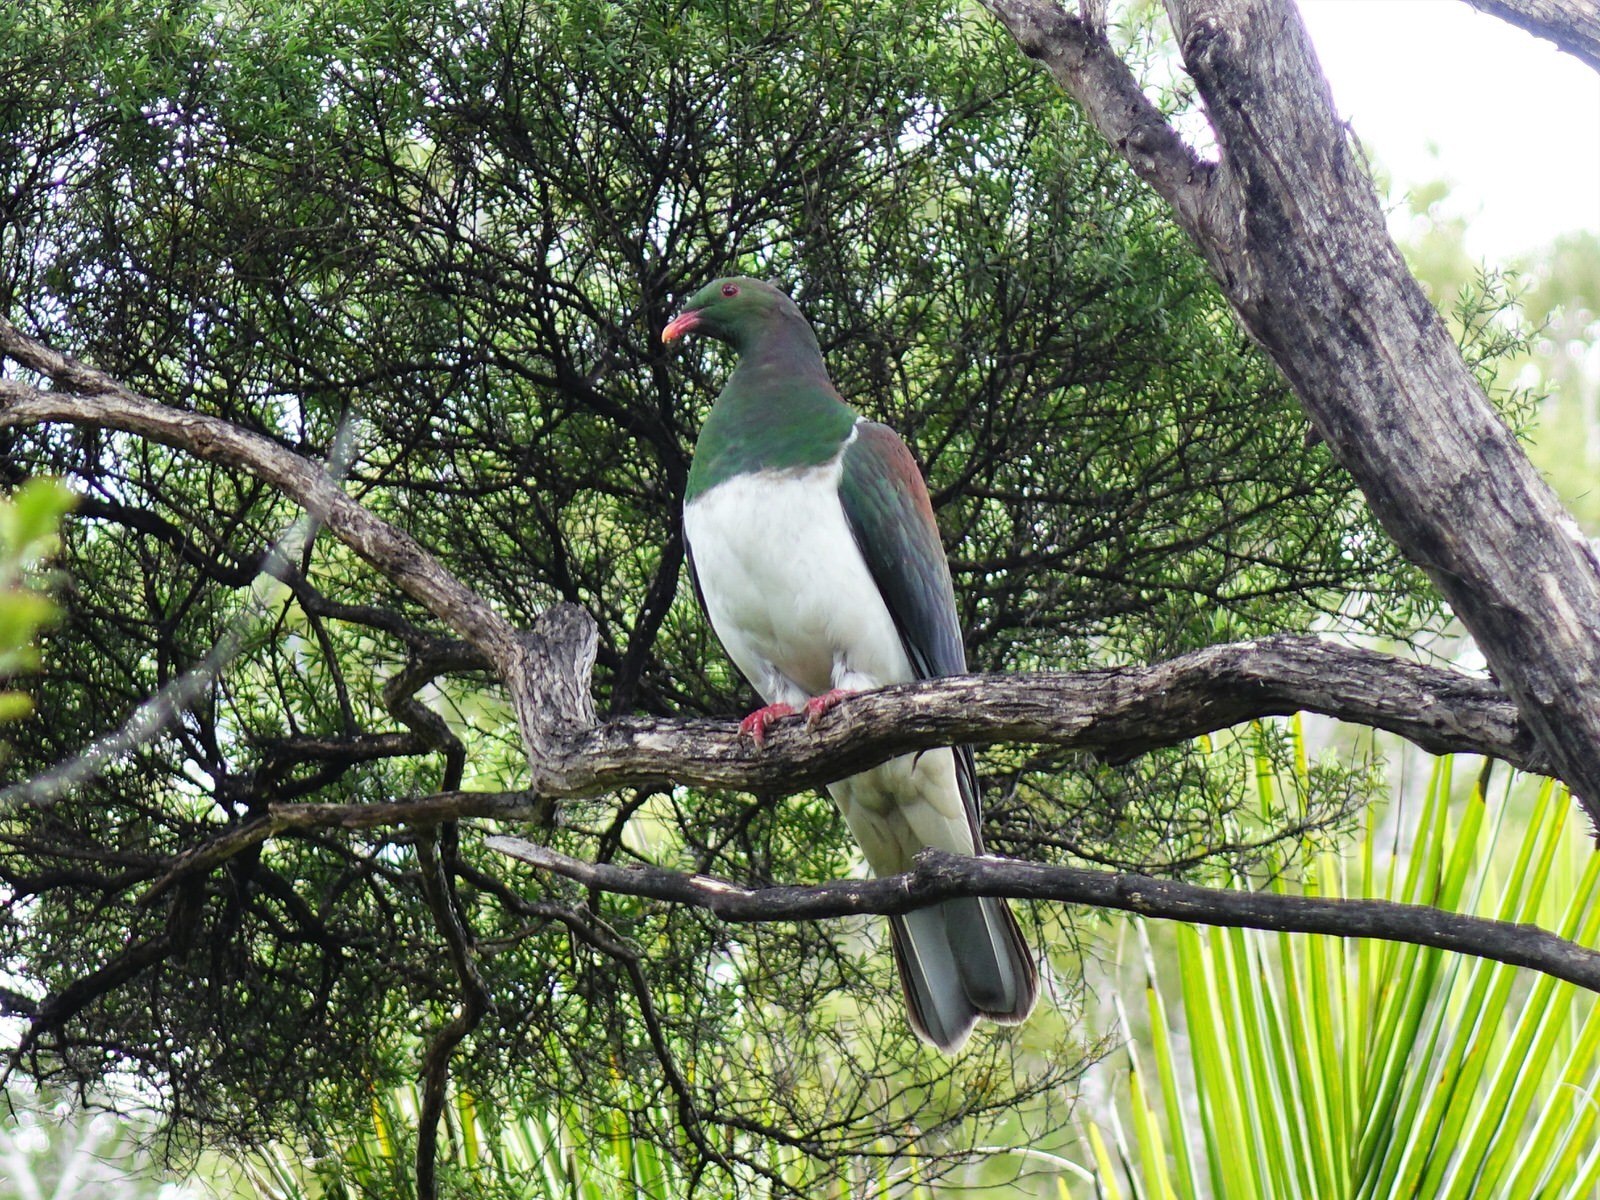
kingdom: Animalia
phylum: Chordata
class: Aves
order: Columbiformes
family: Columbidae
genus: Hemiphaga
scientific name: Hemiphaga novaeseelandiae
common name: New zealand pigeon
